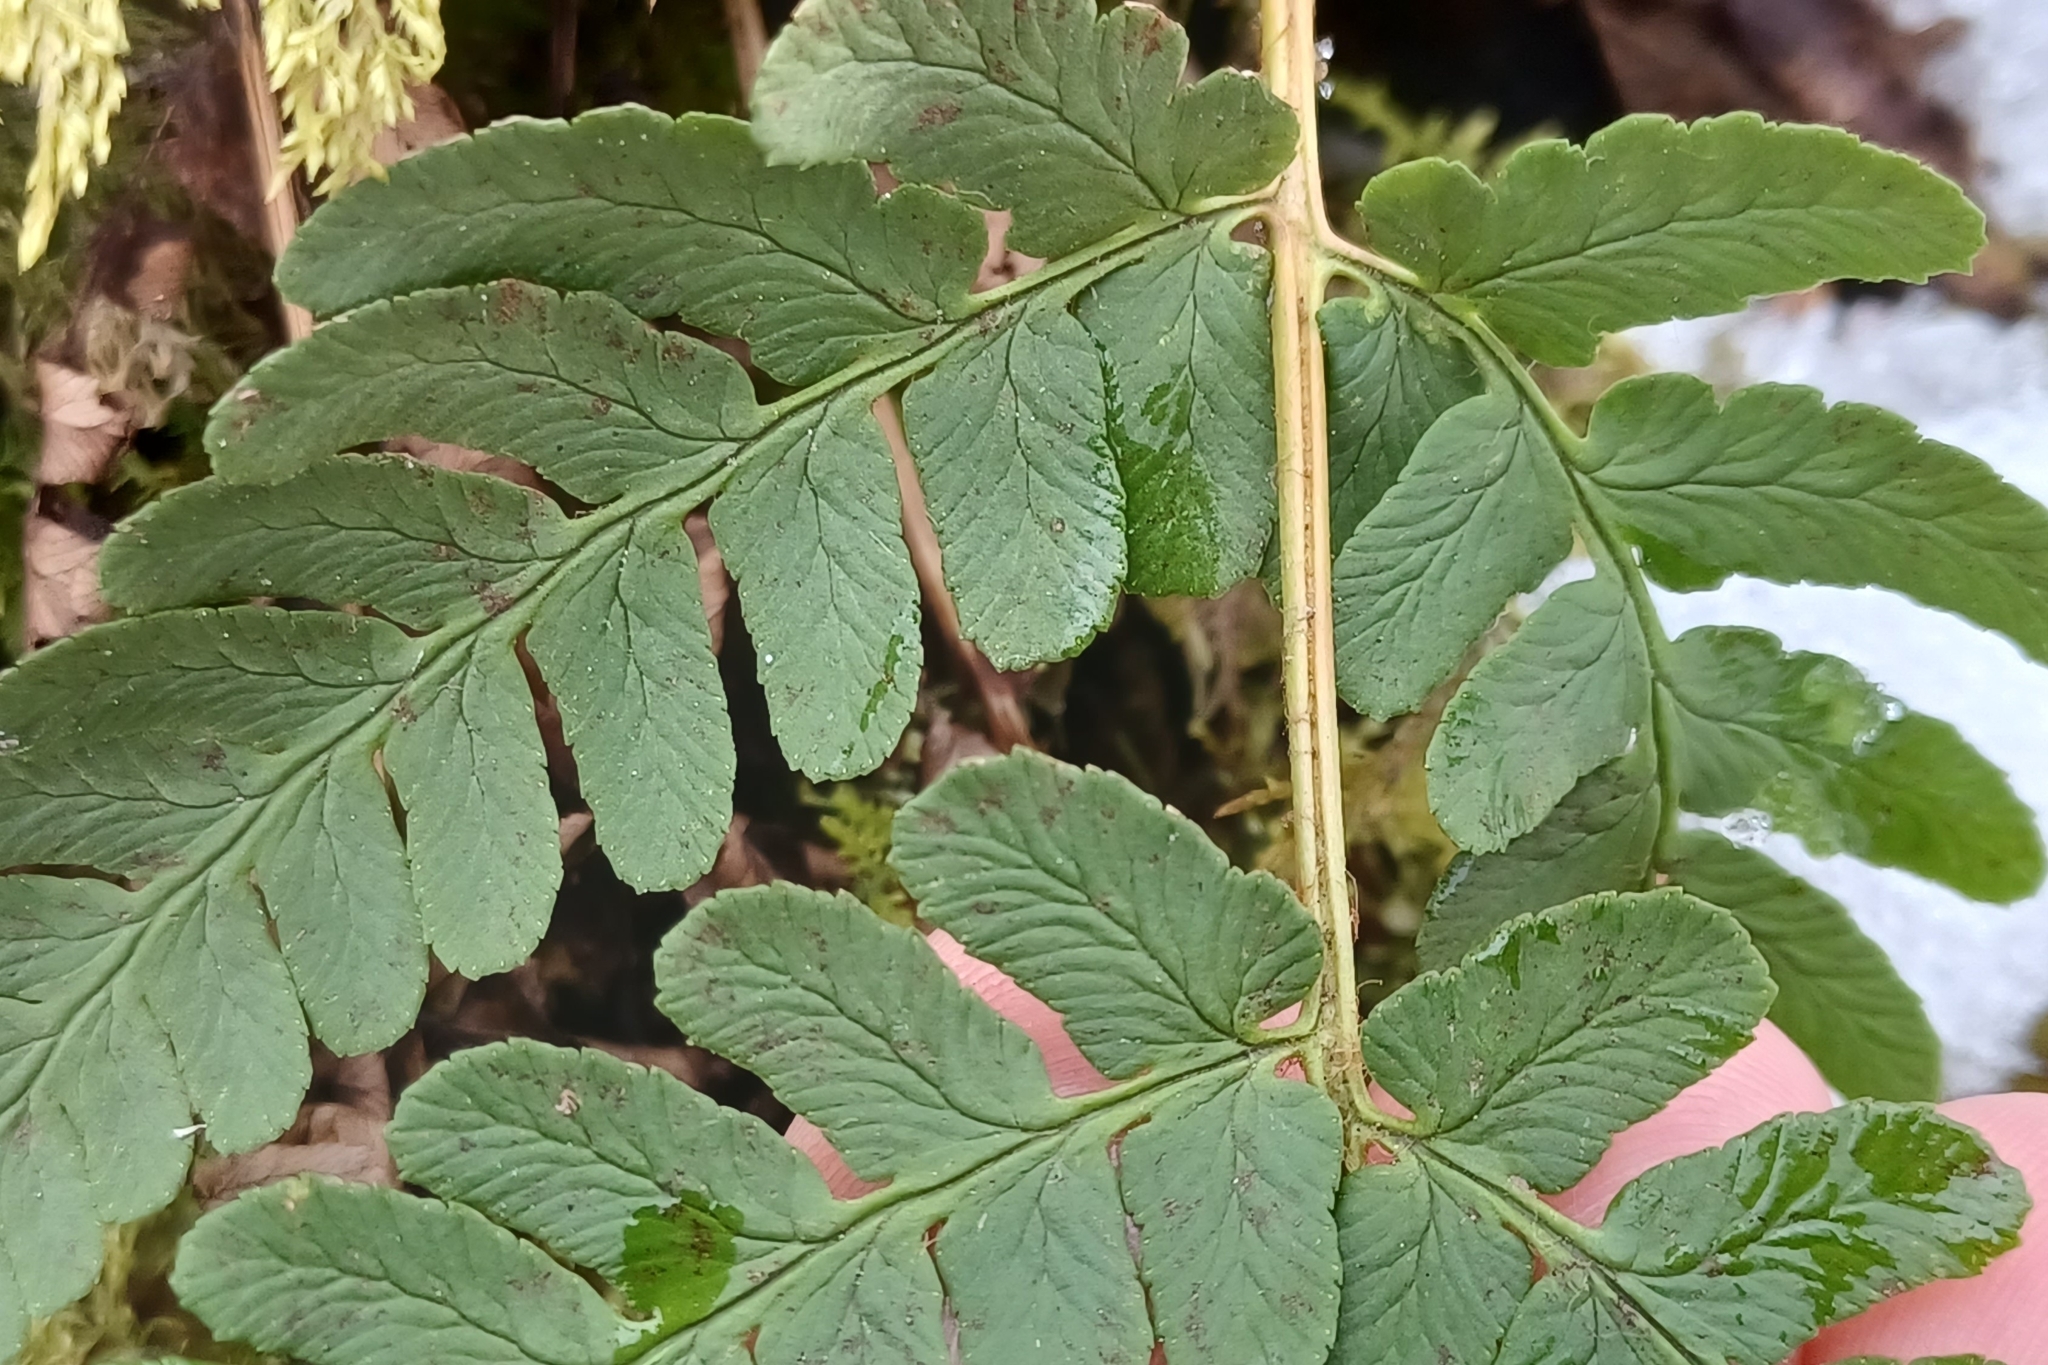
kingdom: Plantae
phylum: Tracheophyta
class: Polypodiopsida
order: Polypodiales
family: Dryopteridaceae
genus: Dryopteris
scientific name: Dryopteris marginalis
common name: Marginal wood fern
